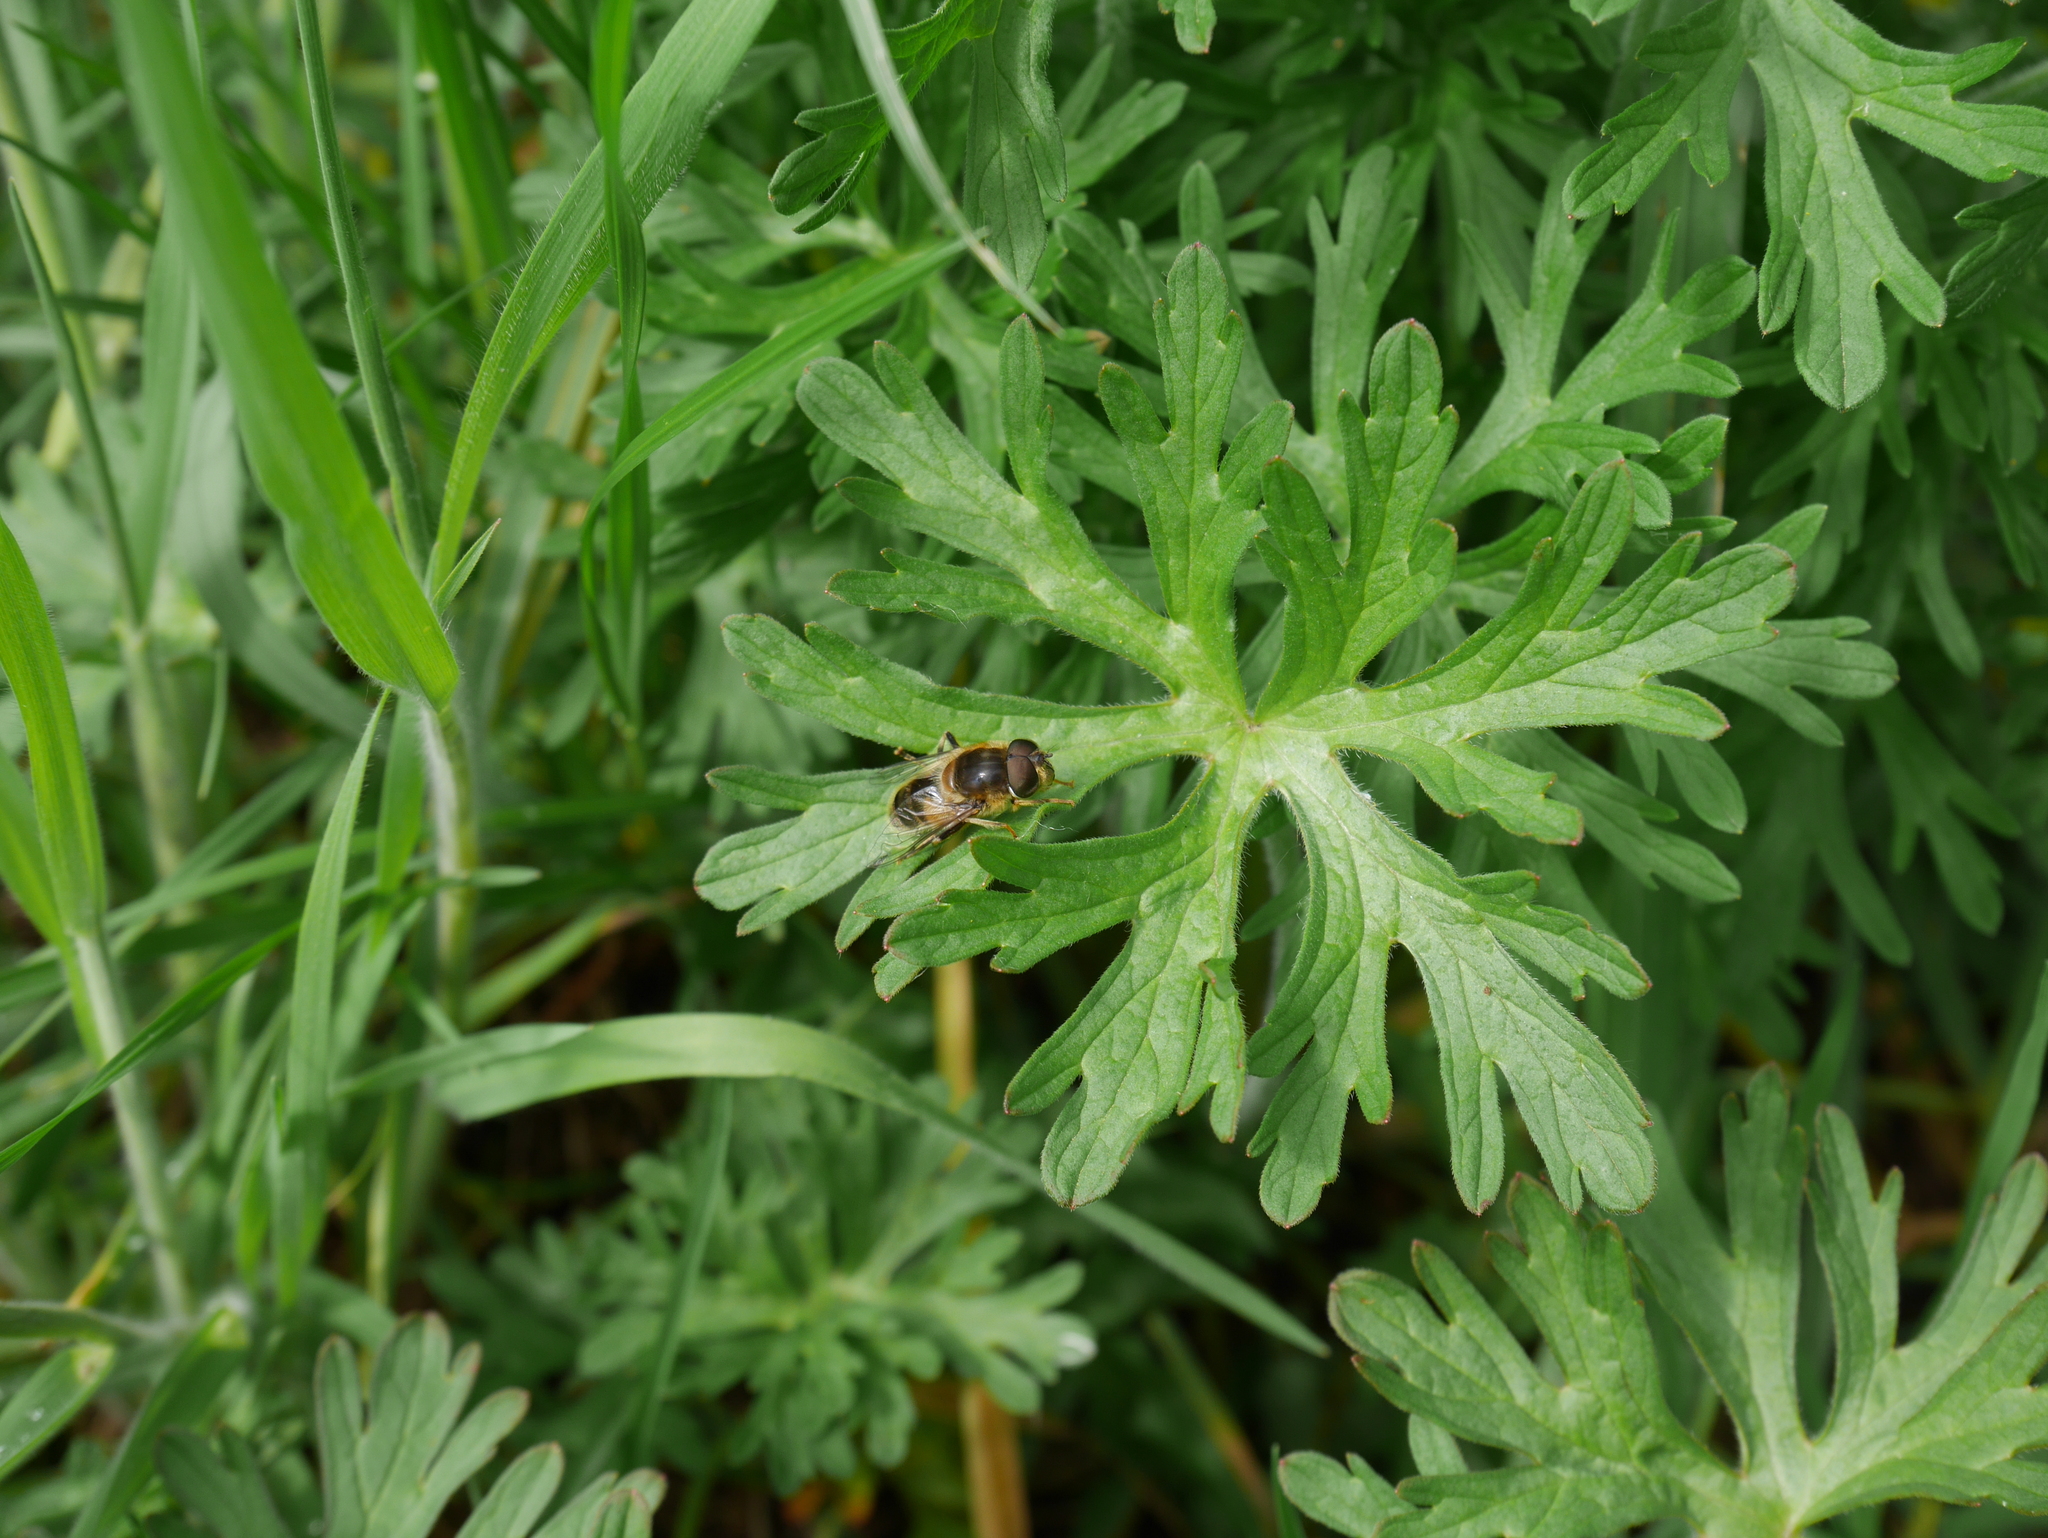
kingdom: Animalia
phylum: Arthropoda
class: Insecta
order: Diptera
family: Syrphidae
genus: Eristalis
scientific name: Eristalis pertinax
